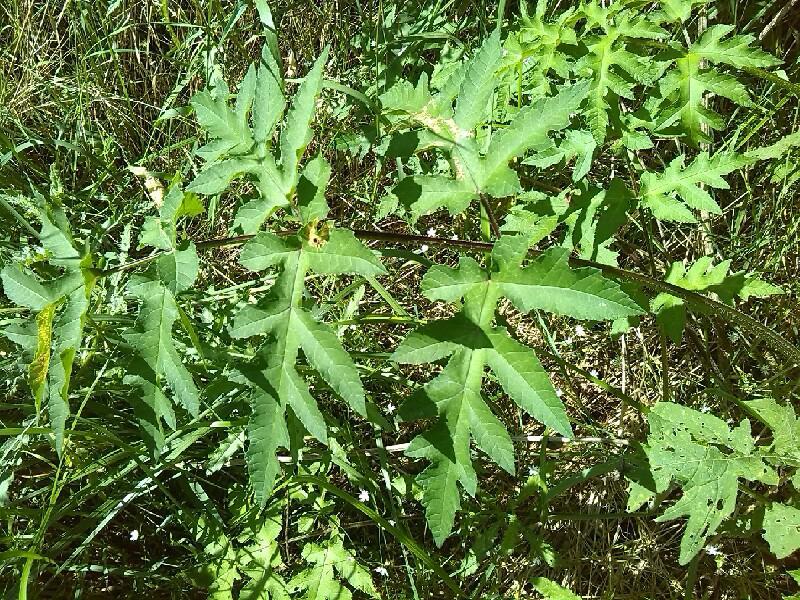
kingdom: Plantae
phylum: Tracheophyta
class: Magnoliopsida
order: Apiales
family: Apiaceae
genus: Heracleum
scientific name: Heracleum sphondylium
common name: Hogweed
